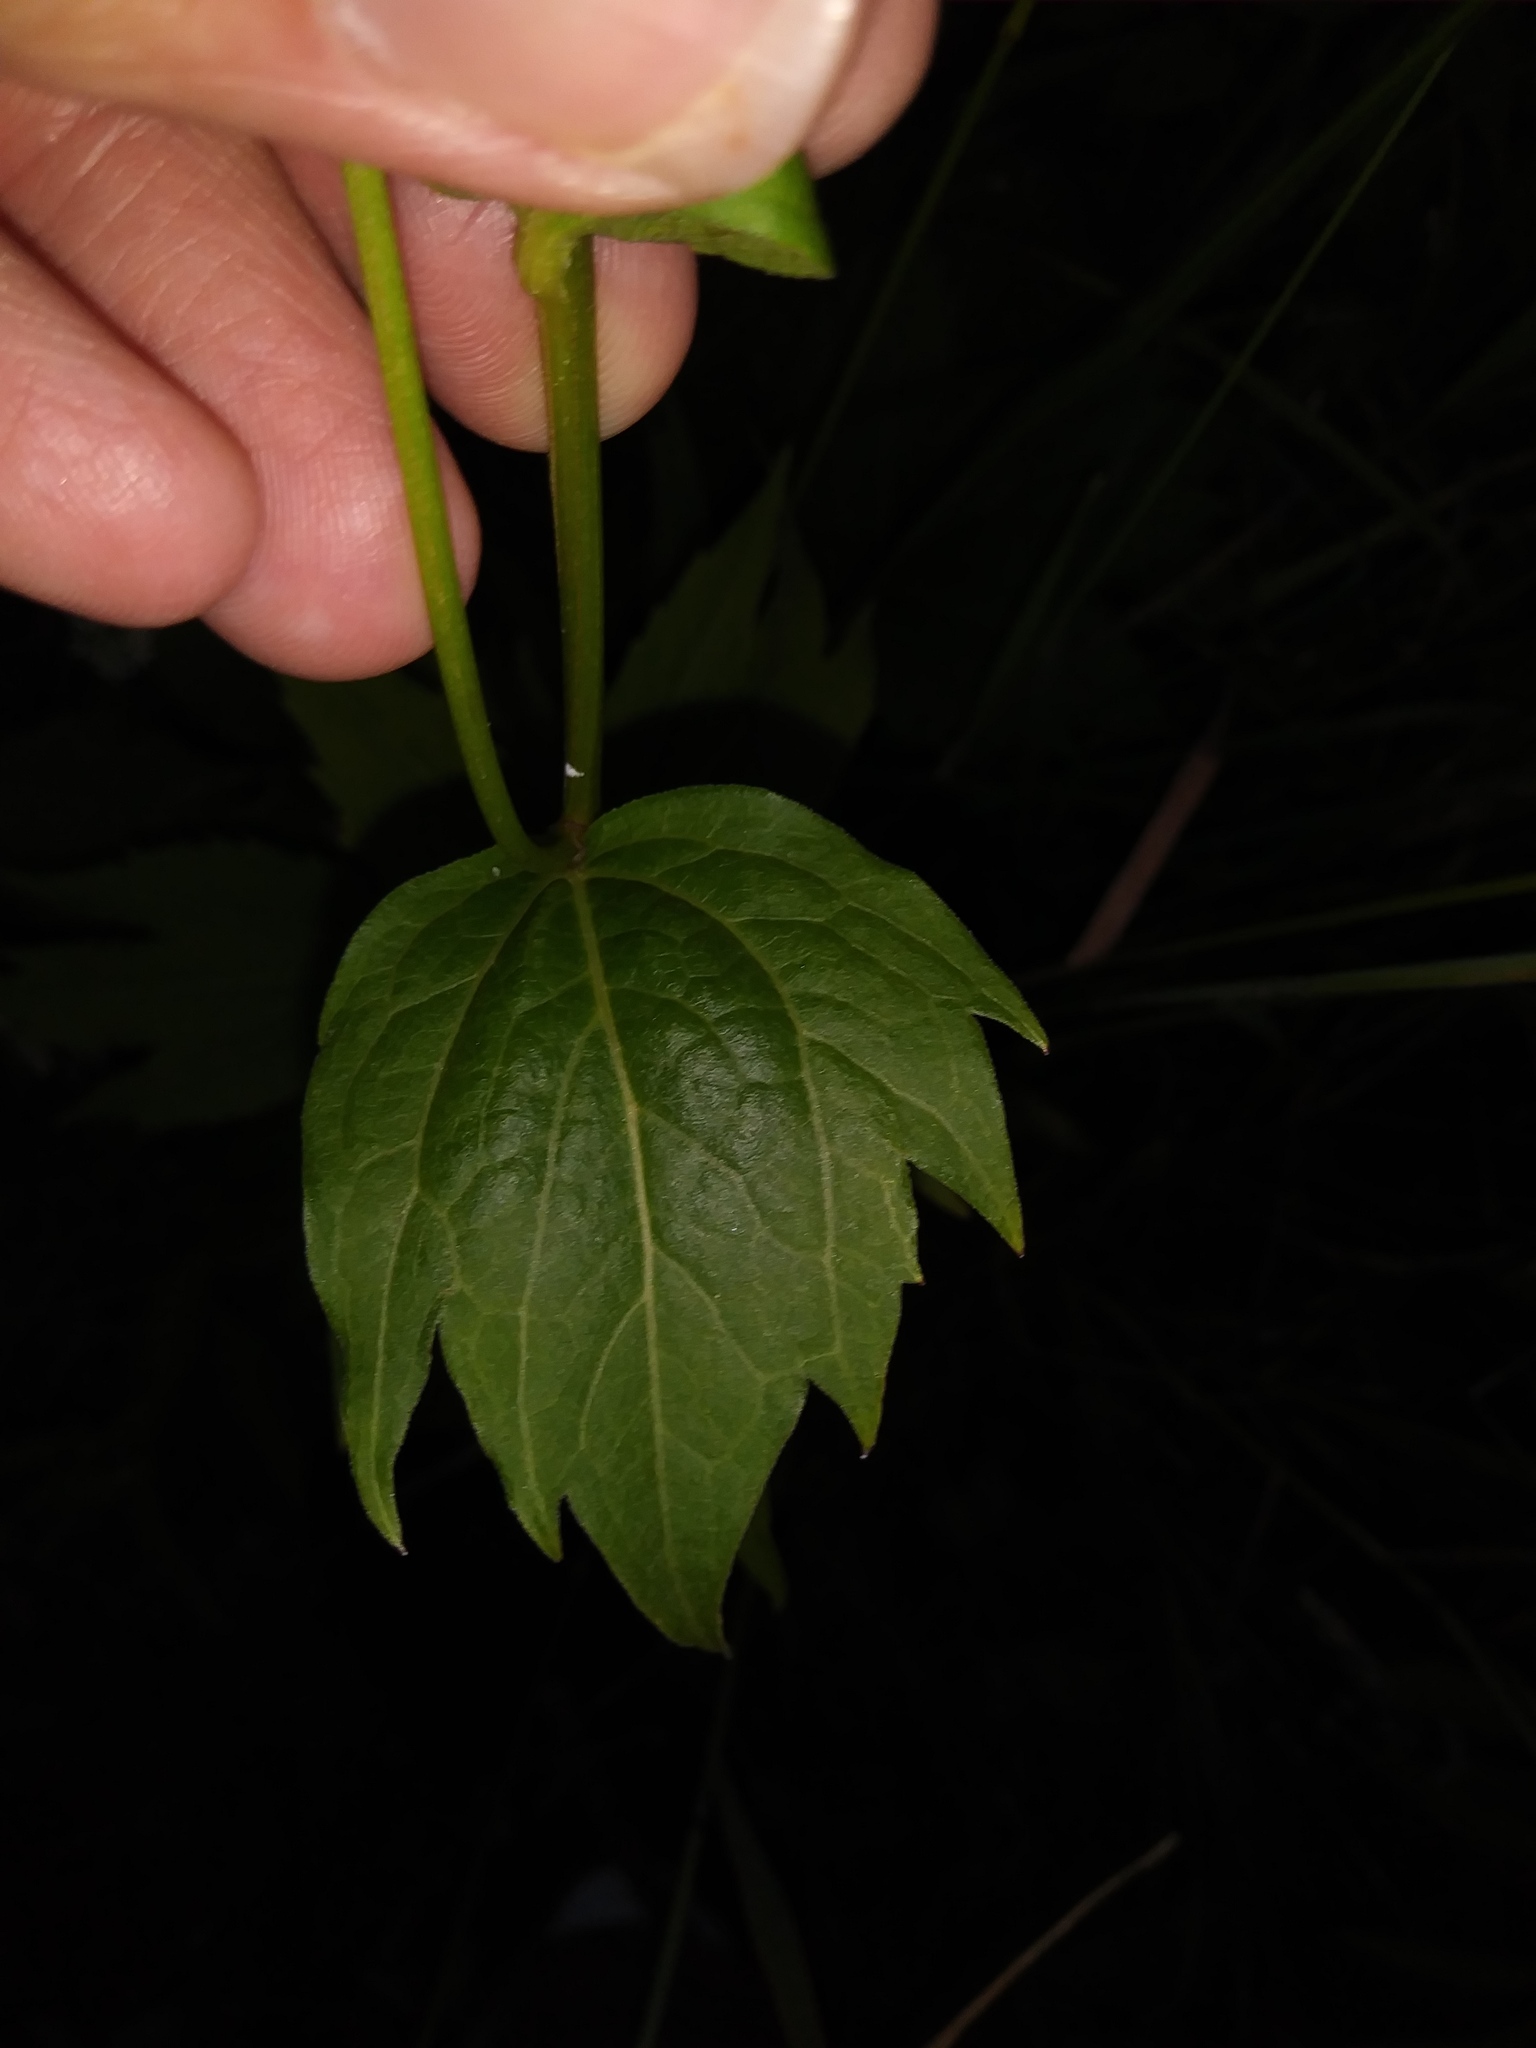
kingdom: Plantae
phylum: Tracheophyta
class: Magnoliopsida
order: Asterales
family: Asteraceae
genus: Rudbeckia
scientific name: Rudbeckia laciniata
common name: Coneflower
